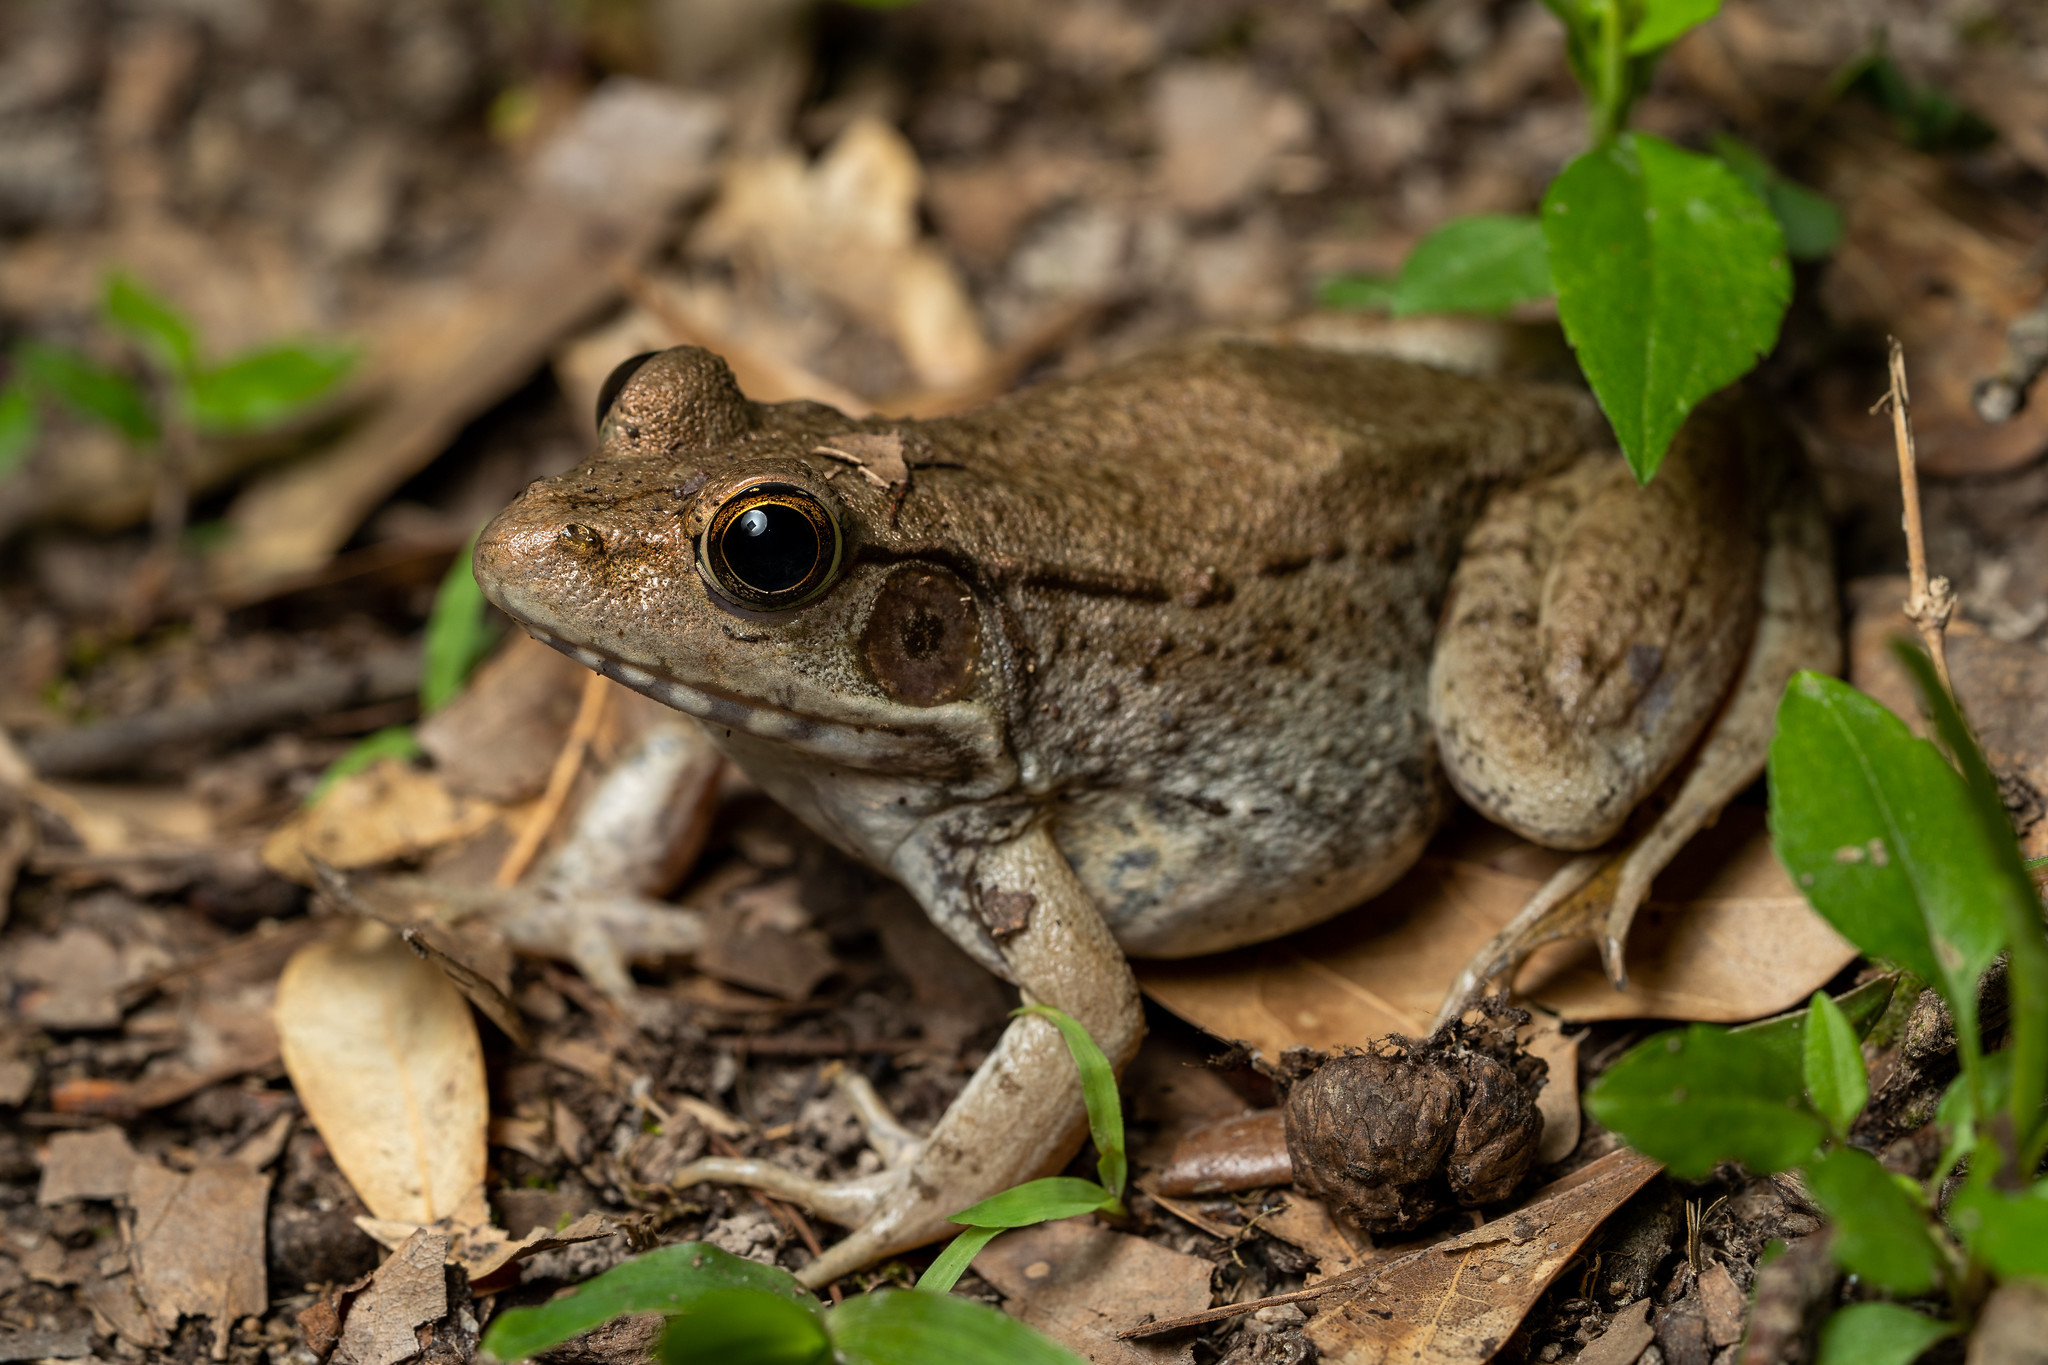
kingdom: Animalia
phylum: Chordata
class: Amphibia
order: Anura
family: Ranidae
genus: Lithobates
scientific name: Lithobates clamitans
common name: Green frog
